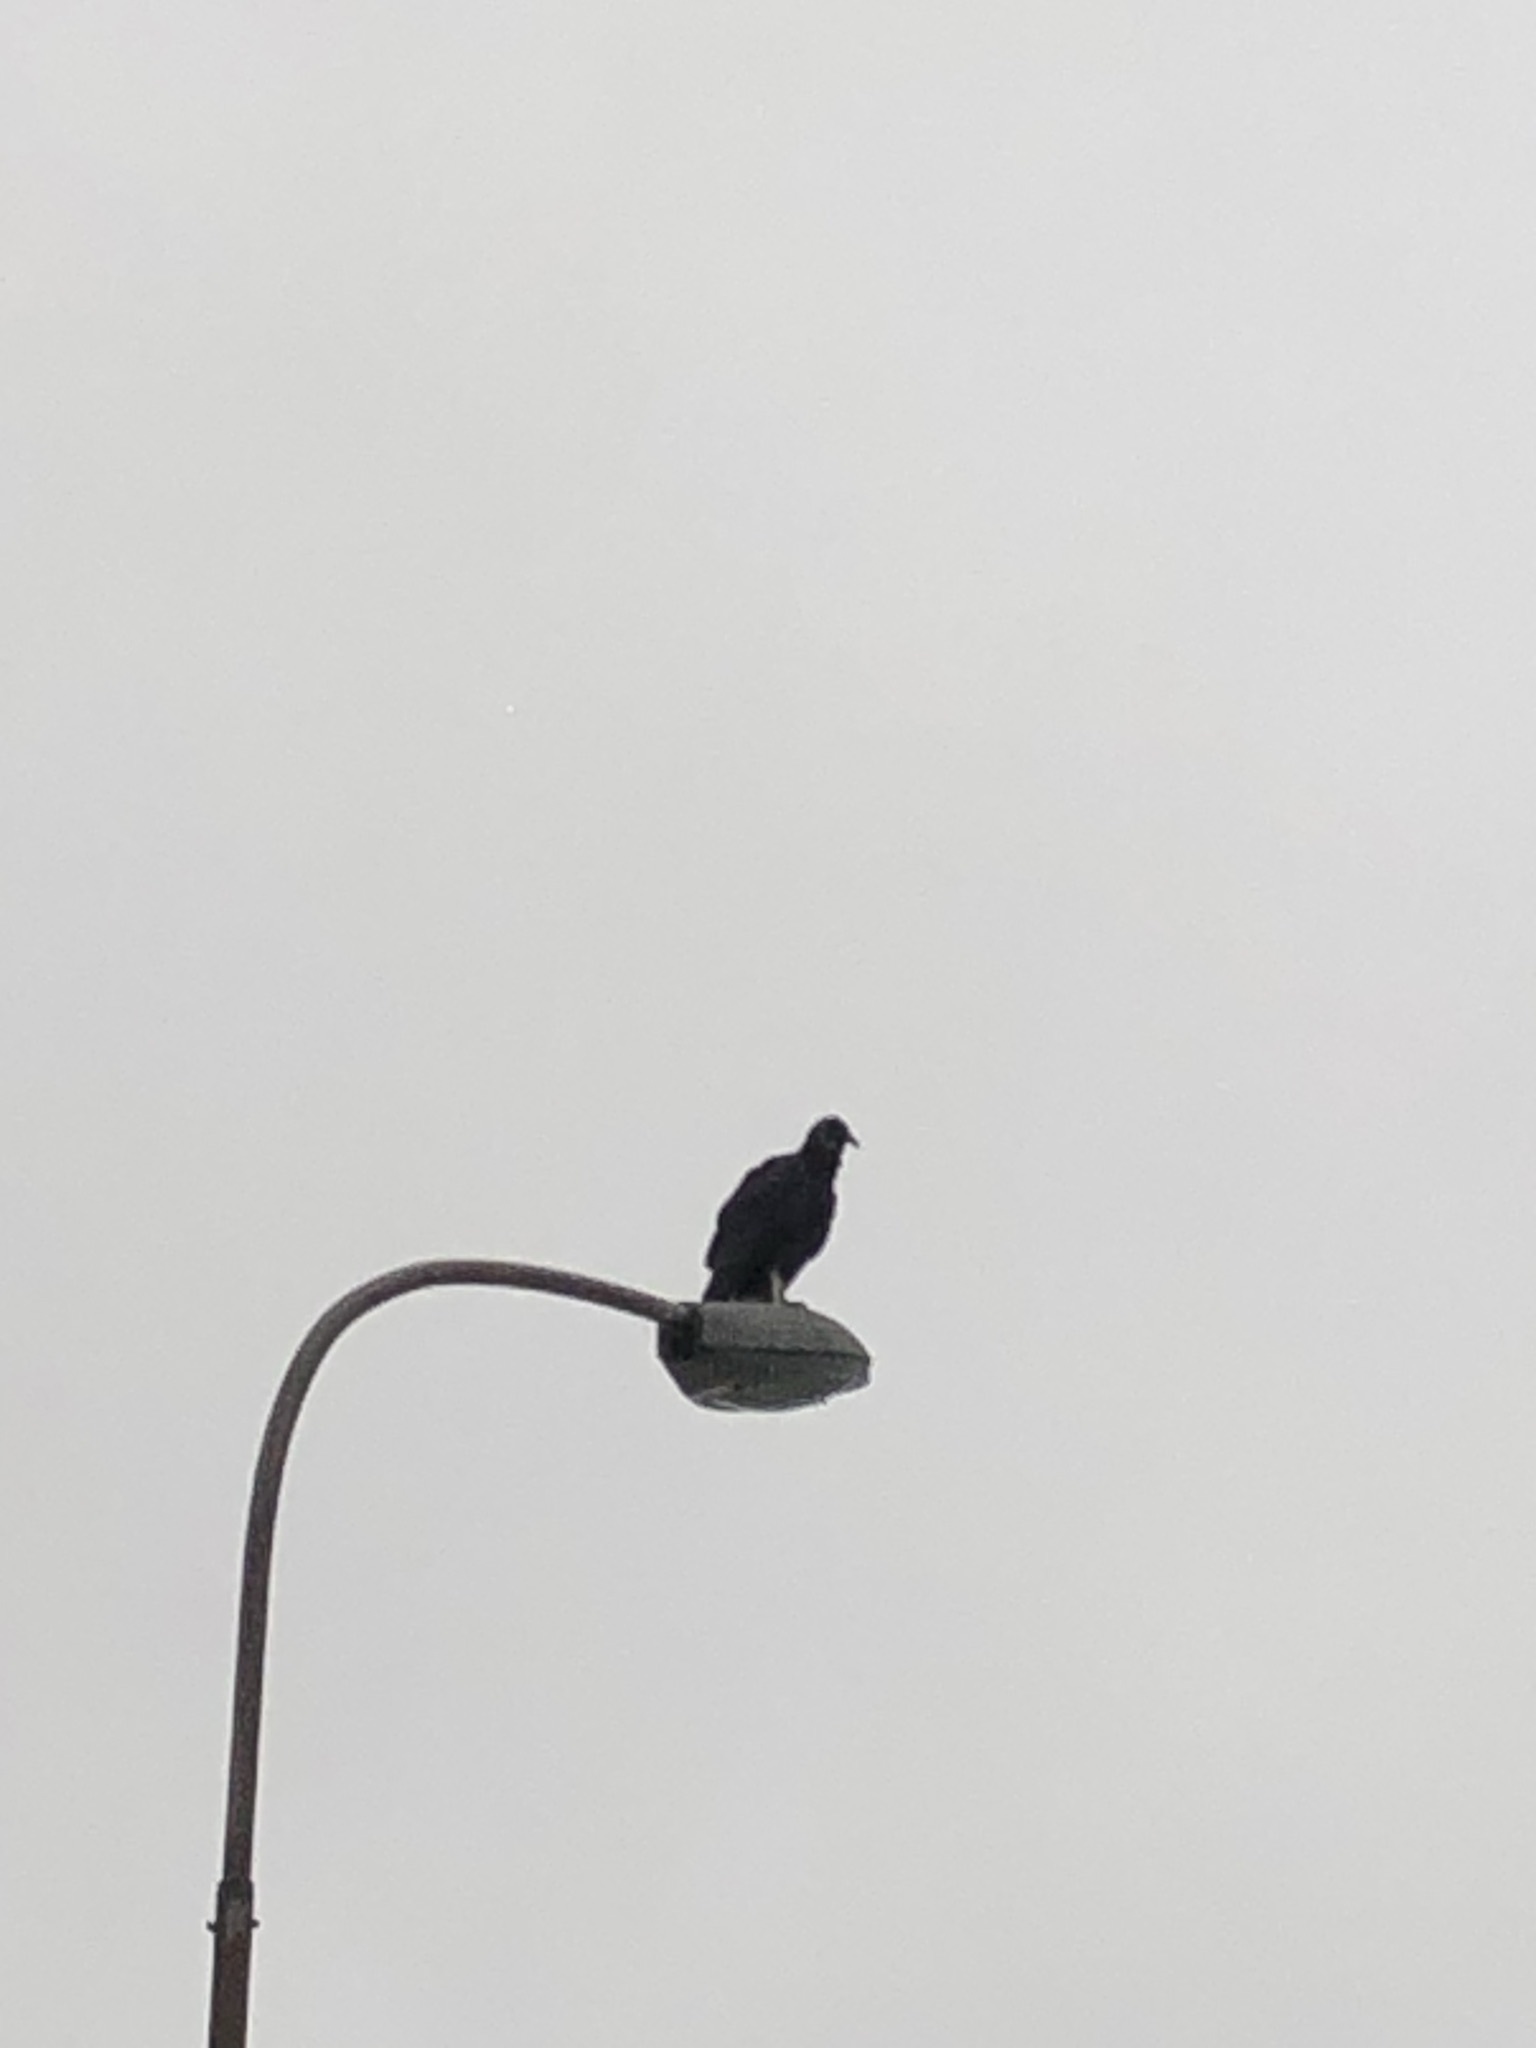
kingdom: Animalia
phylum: Chordata
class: Aves
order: Accipitriformes
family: Cathartidae
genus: Coragyps
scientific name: Coragyps atratus
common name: Black vulture
